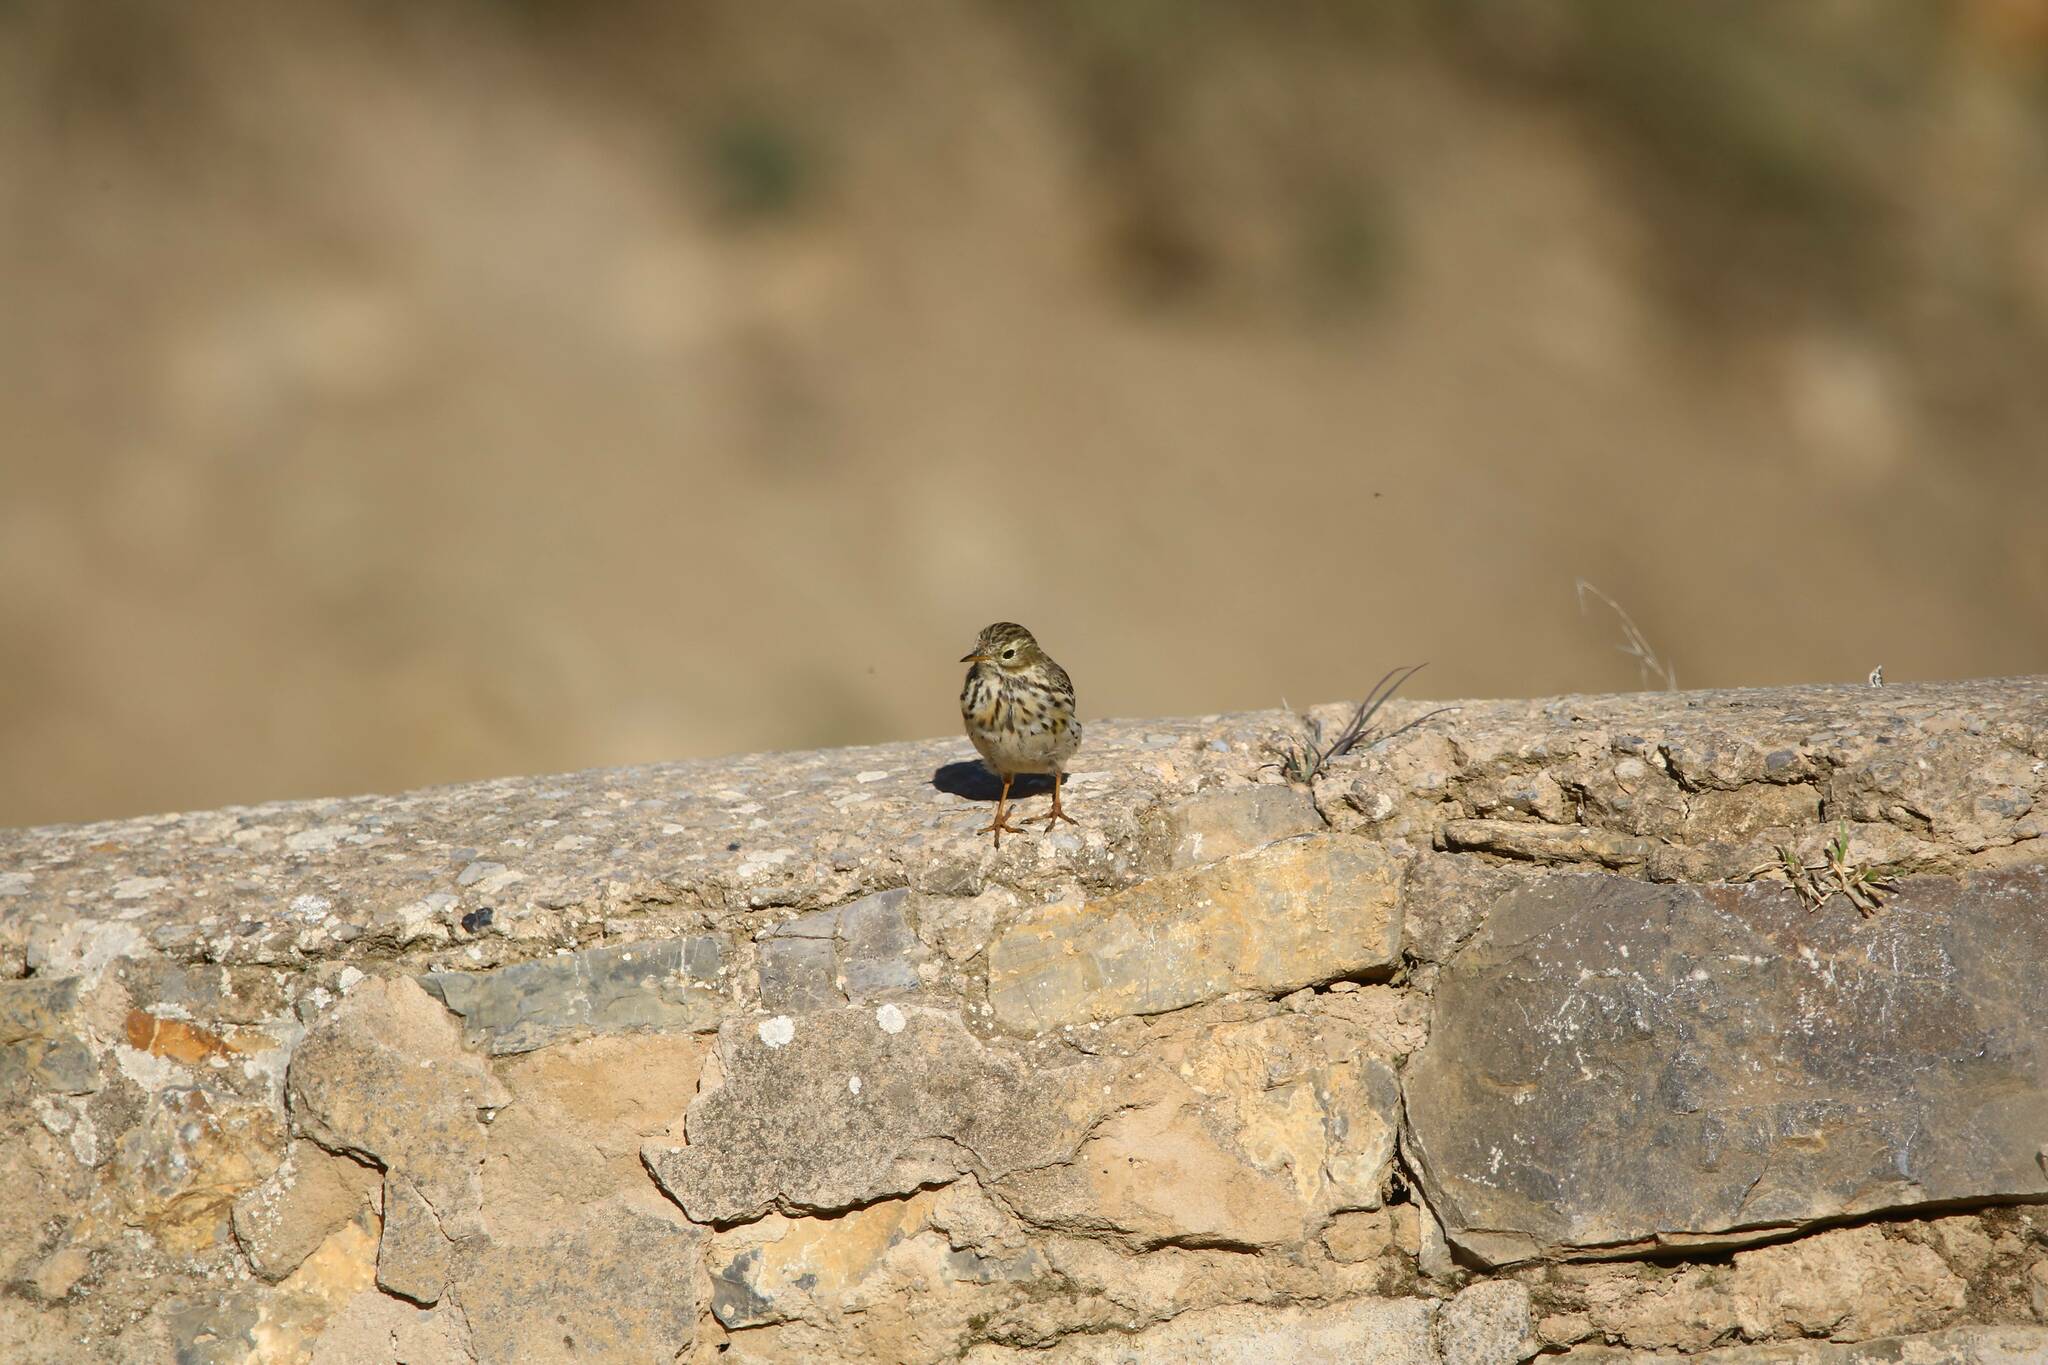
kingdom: Animalia
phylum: Chordata
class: Aves
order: Passeriformes
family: Motacillidae
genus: Anthus
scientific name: Anthus pratensis
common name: Meadow pipit
